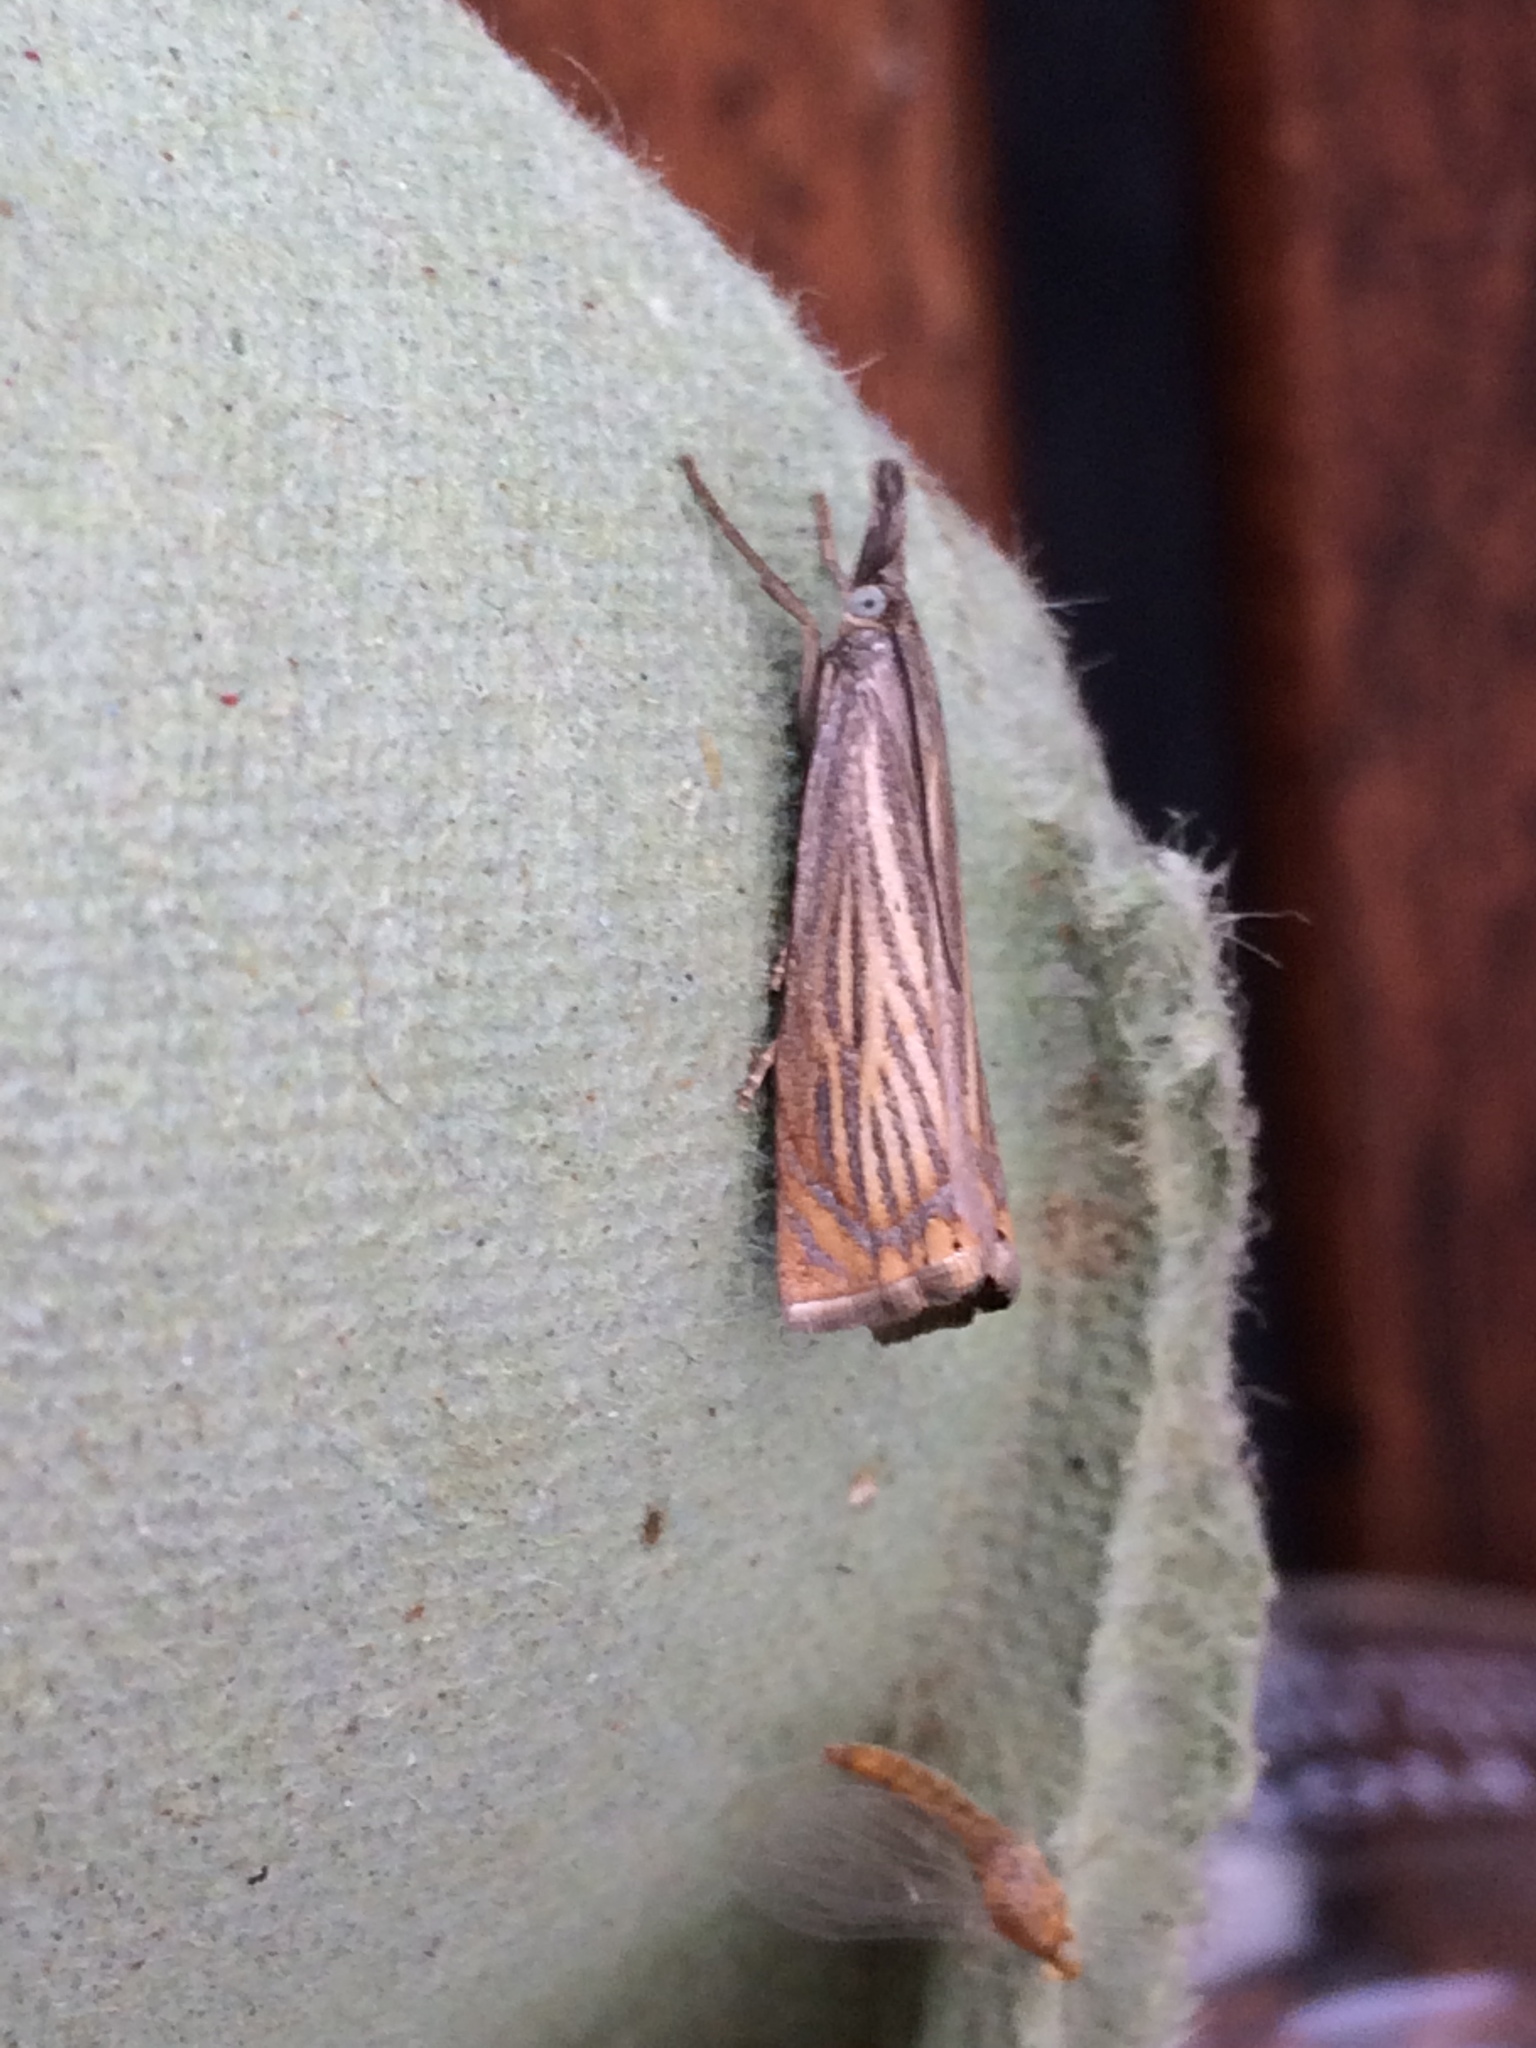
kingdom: Animalia
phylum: Arthropoda
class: Insecta
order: Lepidoptera
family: Crambidae
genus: Chrysoteuchia
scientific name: Chrysoteuchia culmella
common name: Garden grass-veneer
